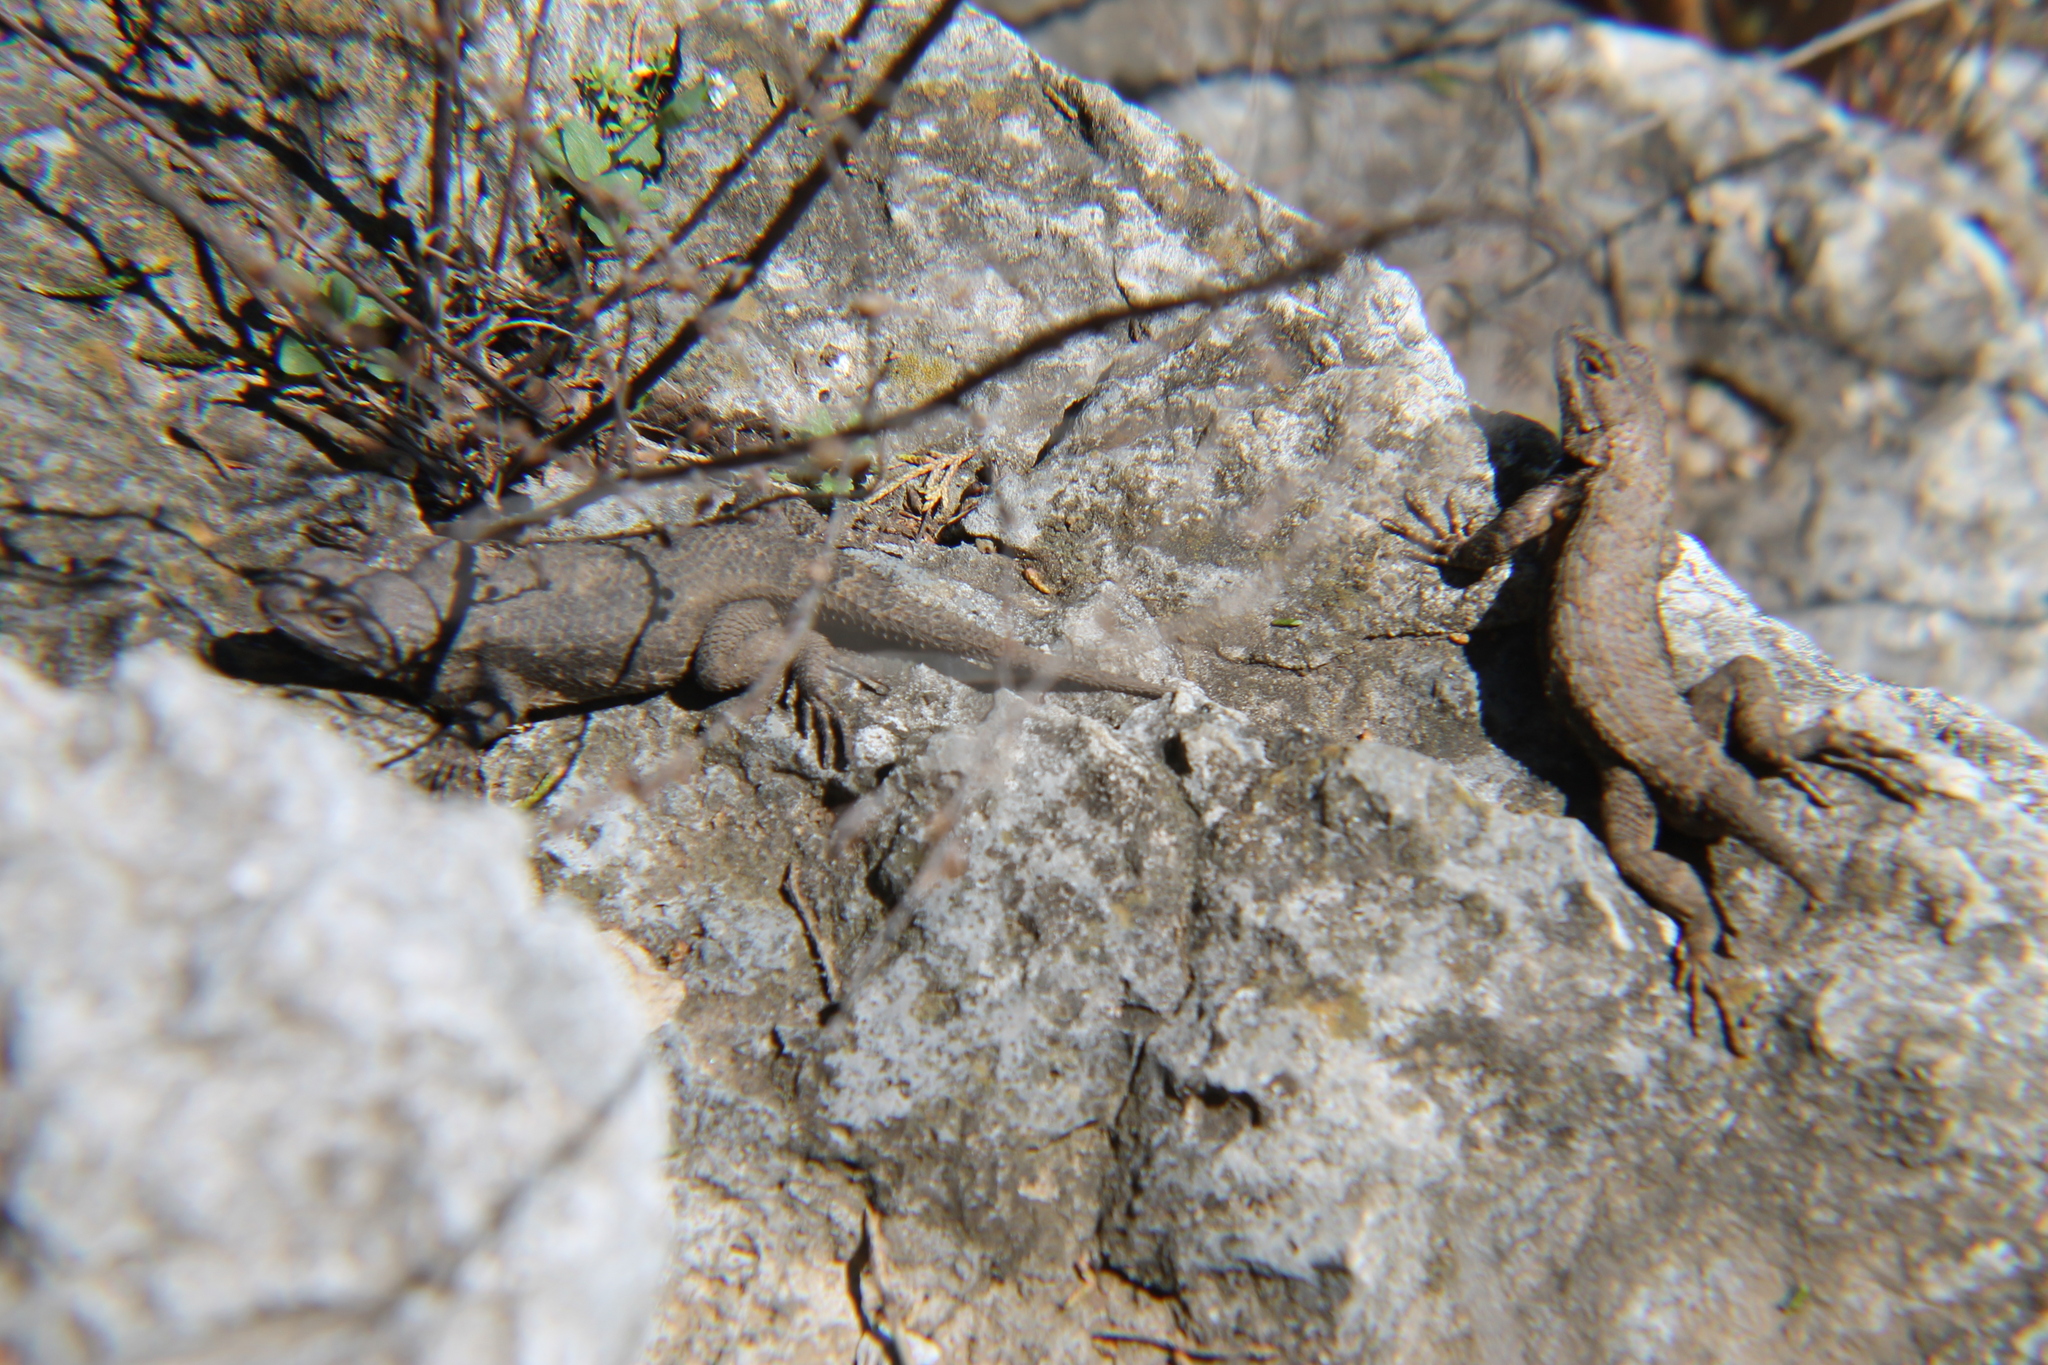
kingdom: Animalia
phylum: Chordata
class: Squamata
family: Phrynosomatidae
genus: Sceloporus
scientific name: Sceloporus undulatus
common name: Eastern fence lizard
